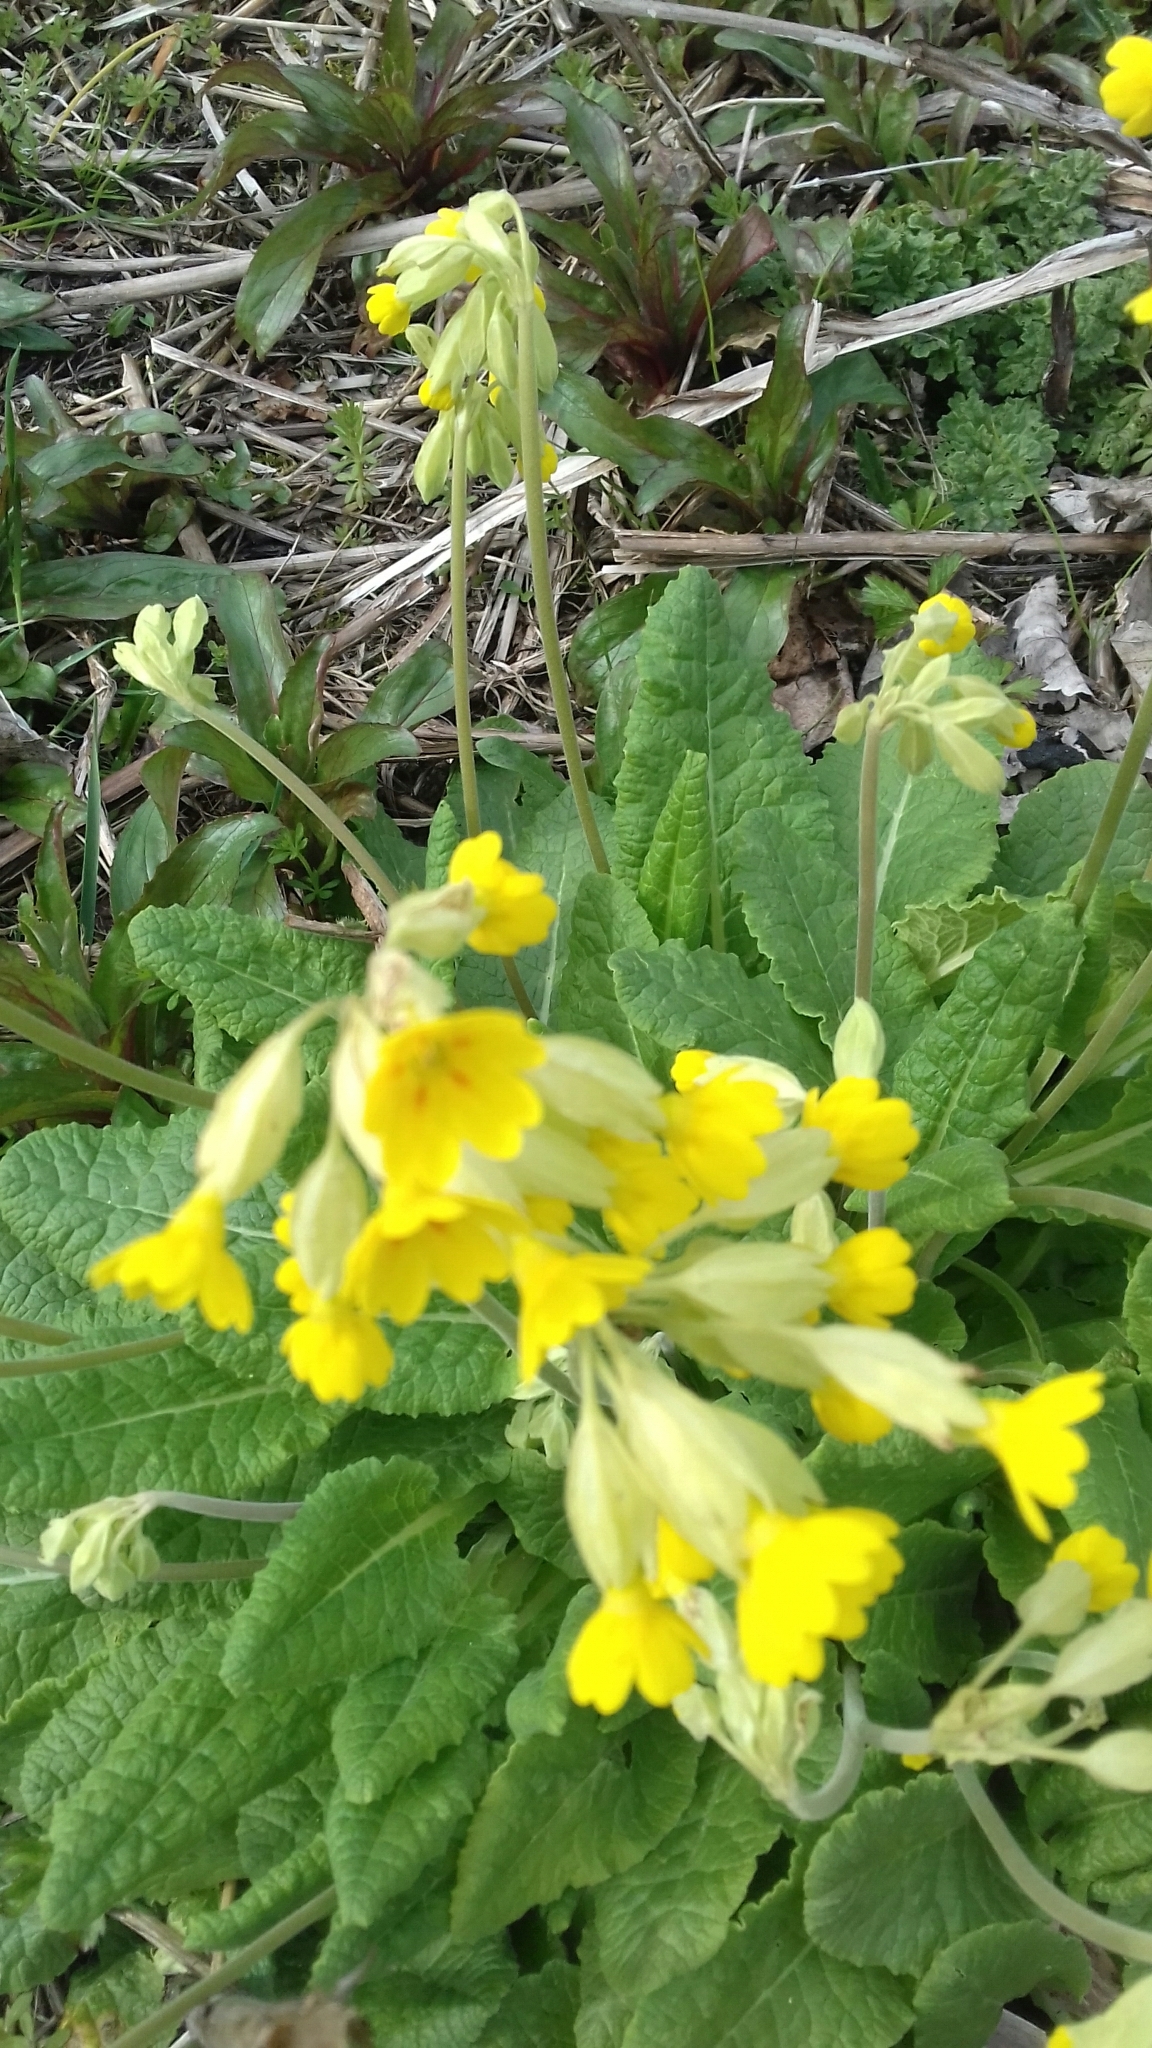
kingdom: Plantae
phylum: Tracheophyta
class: Magnoliopsida
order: Ericales
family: Primulaceae
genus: Primula
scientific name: Primula veris
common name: Cowslip
